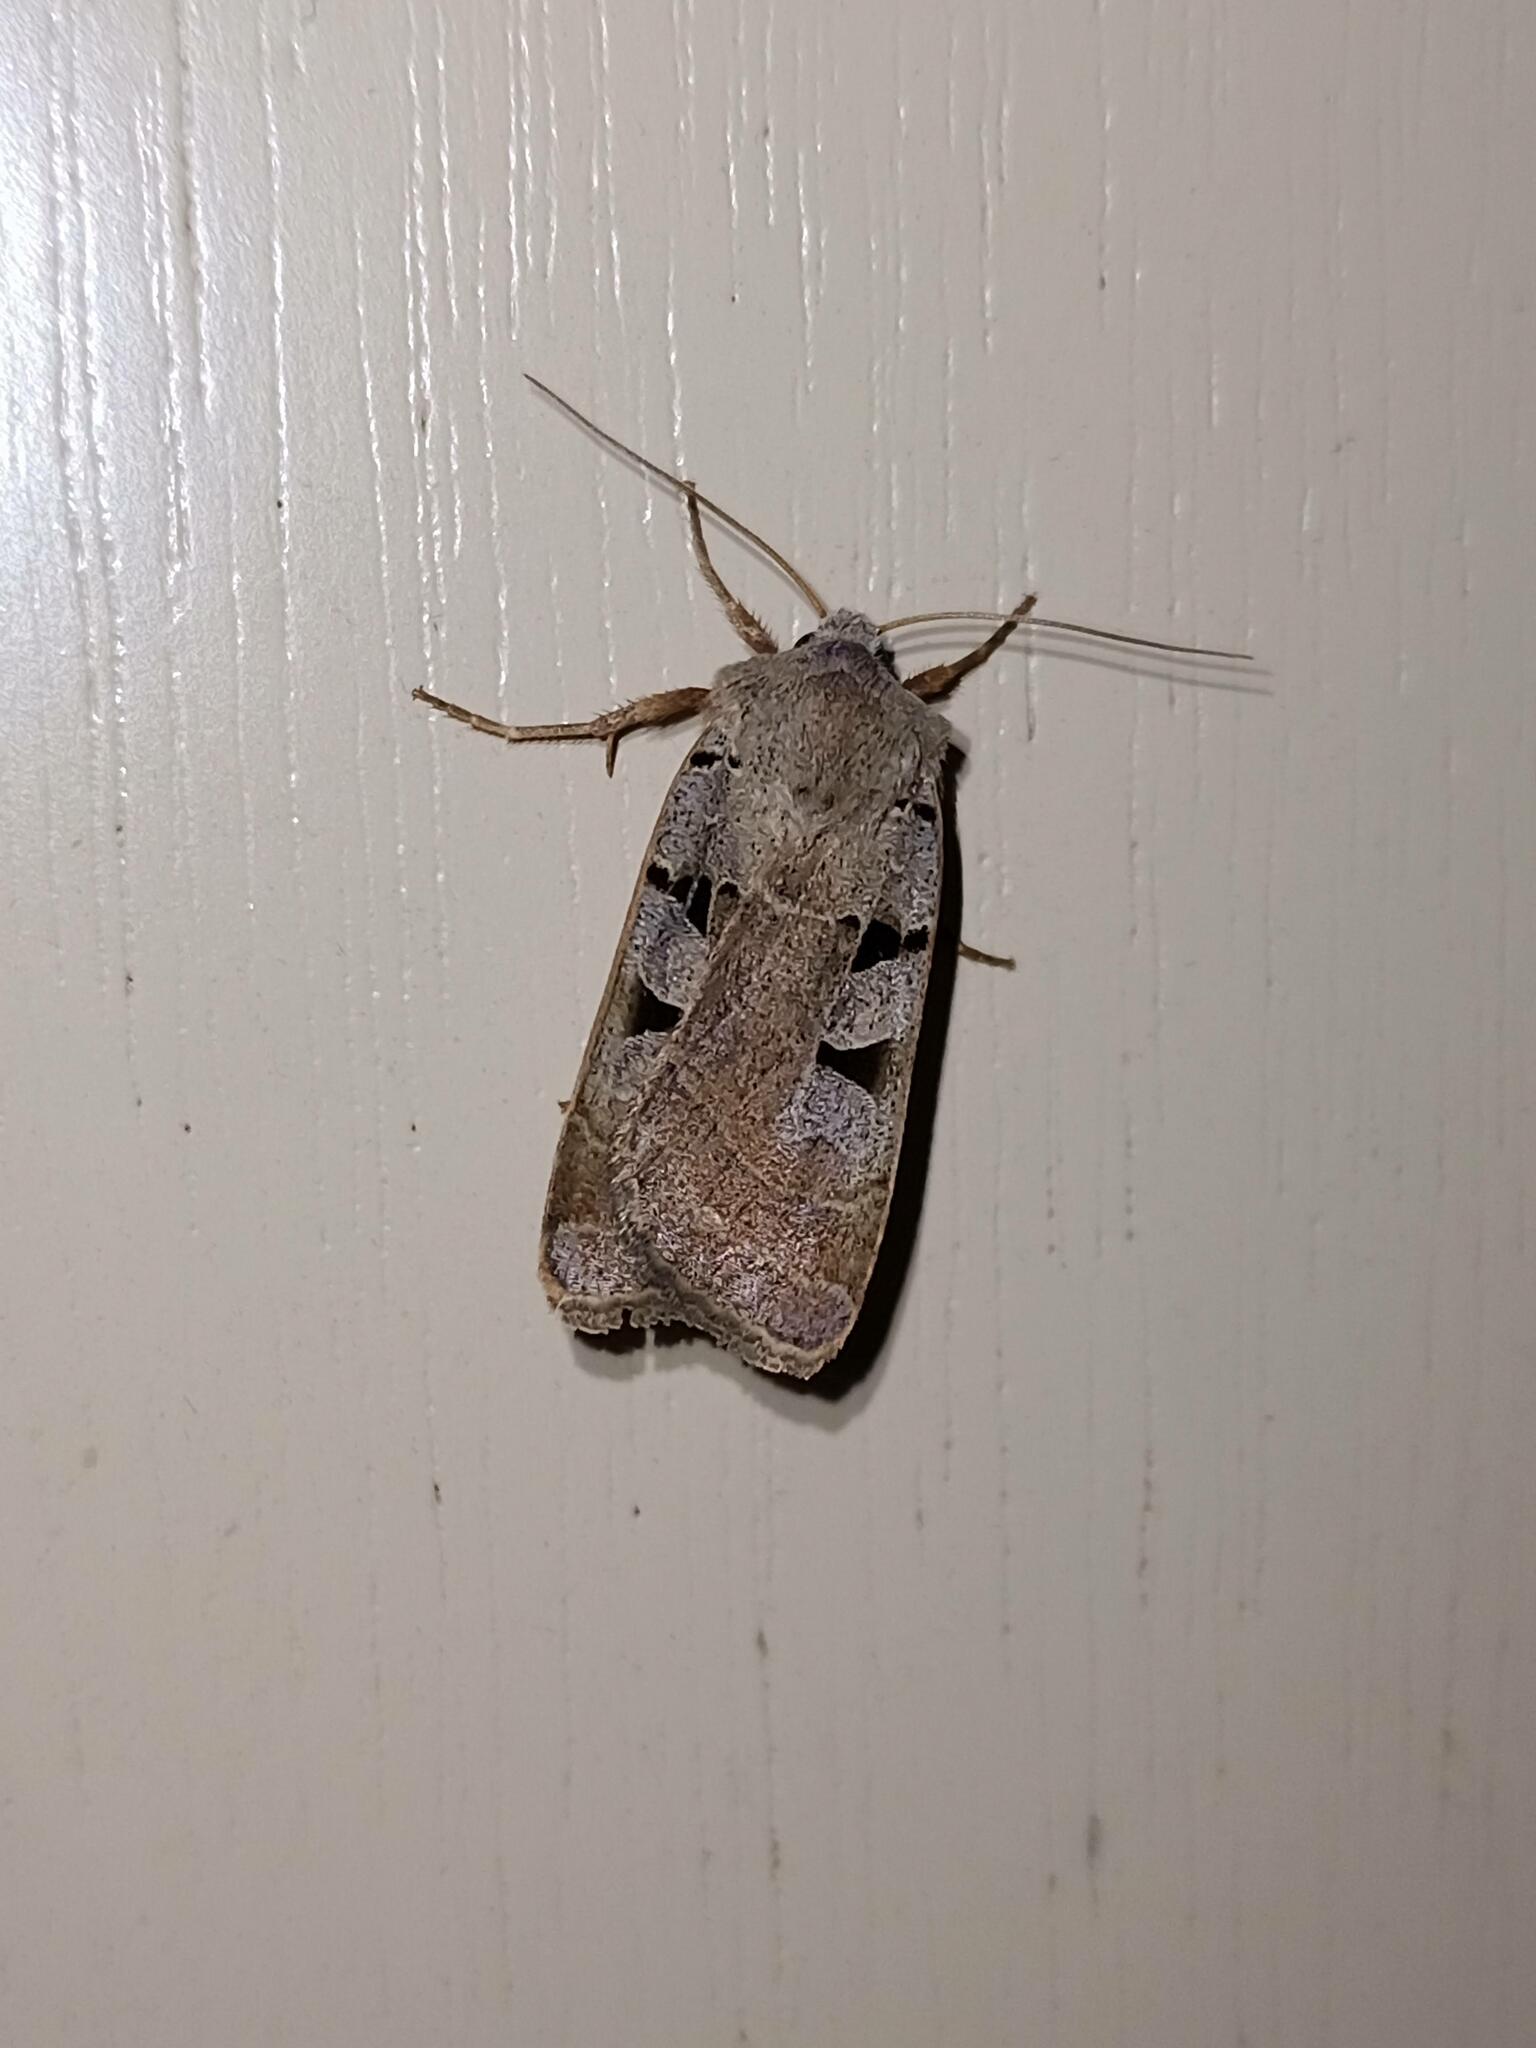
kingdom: Animalia
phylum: Arthropoda
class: Insecta
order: Lepidoptera
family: Noctuidae
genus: Eugnorisma
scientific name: Eugnorisma glareosa
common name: Autumnal rustic
